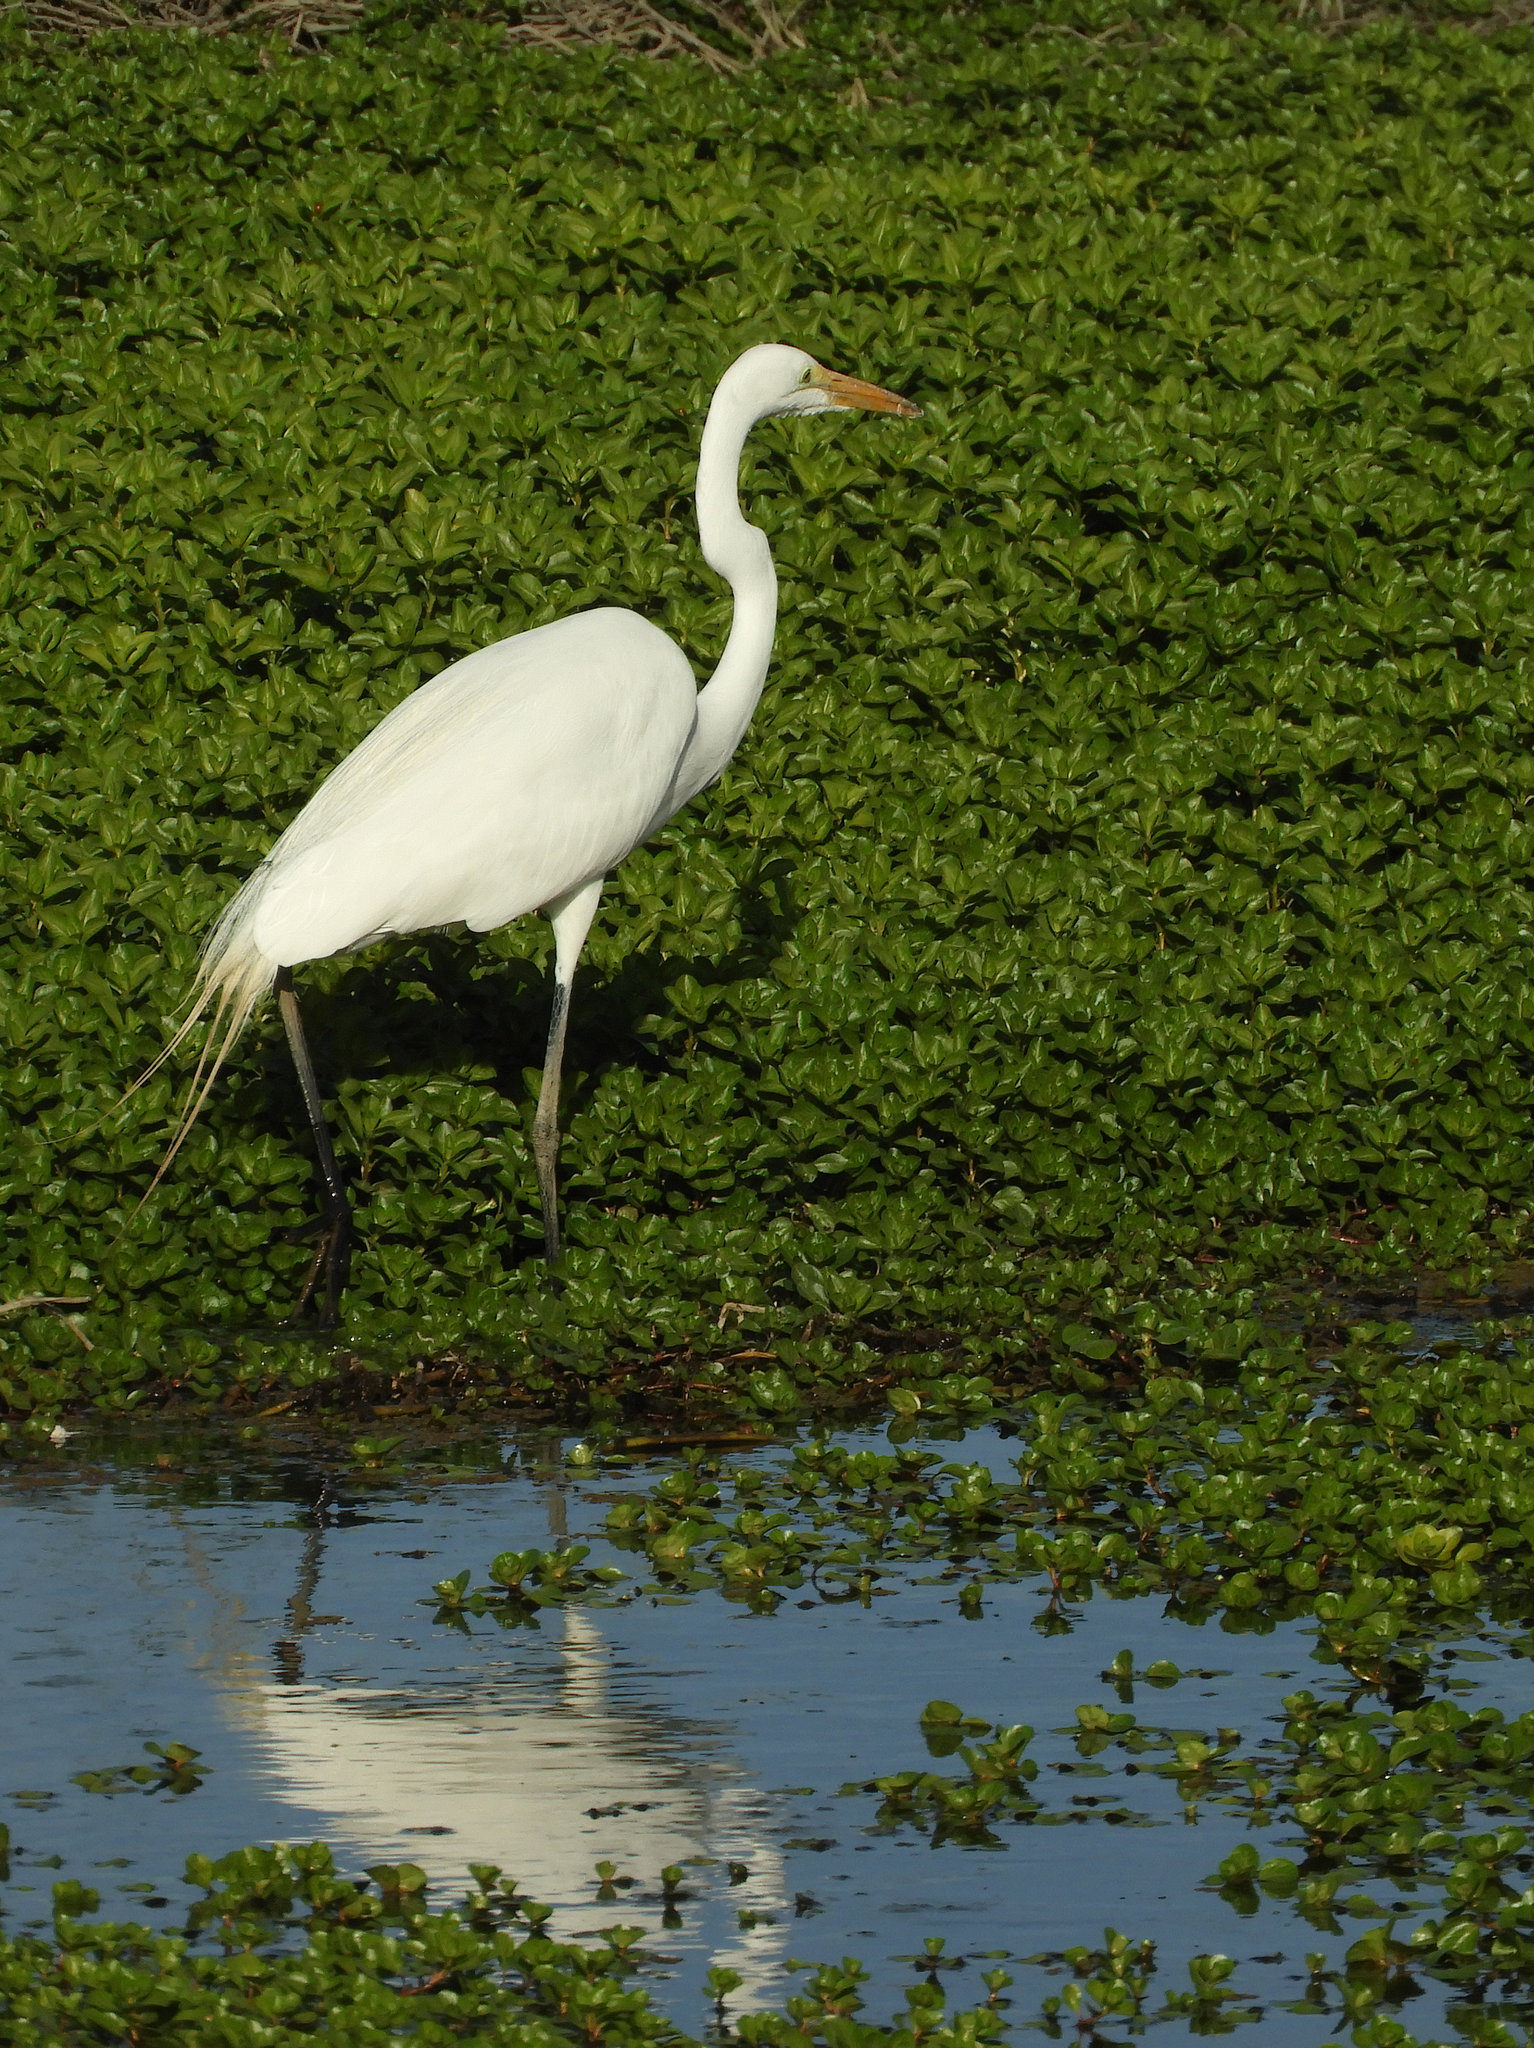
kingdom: Animalia
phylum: Chordata
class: Aves
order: Pelecaniformes
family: Ardeidae
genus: Ardea
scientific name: Ardea alba
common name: Great egret
